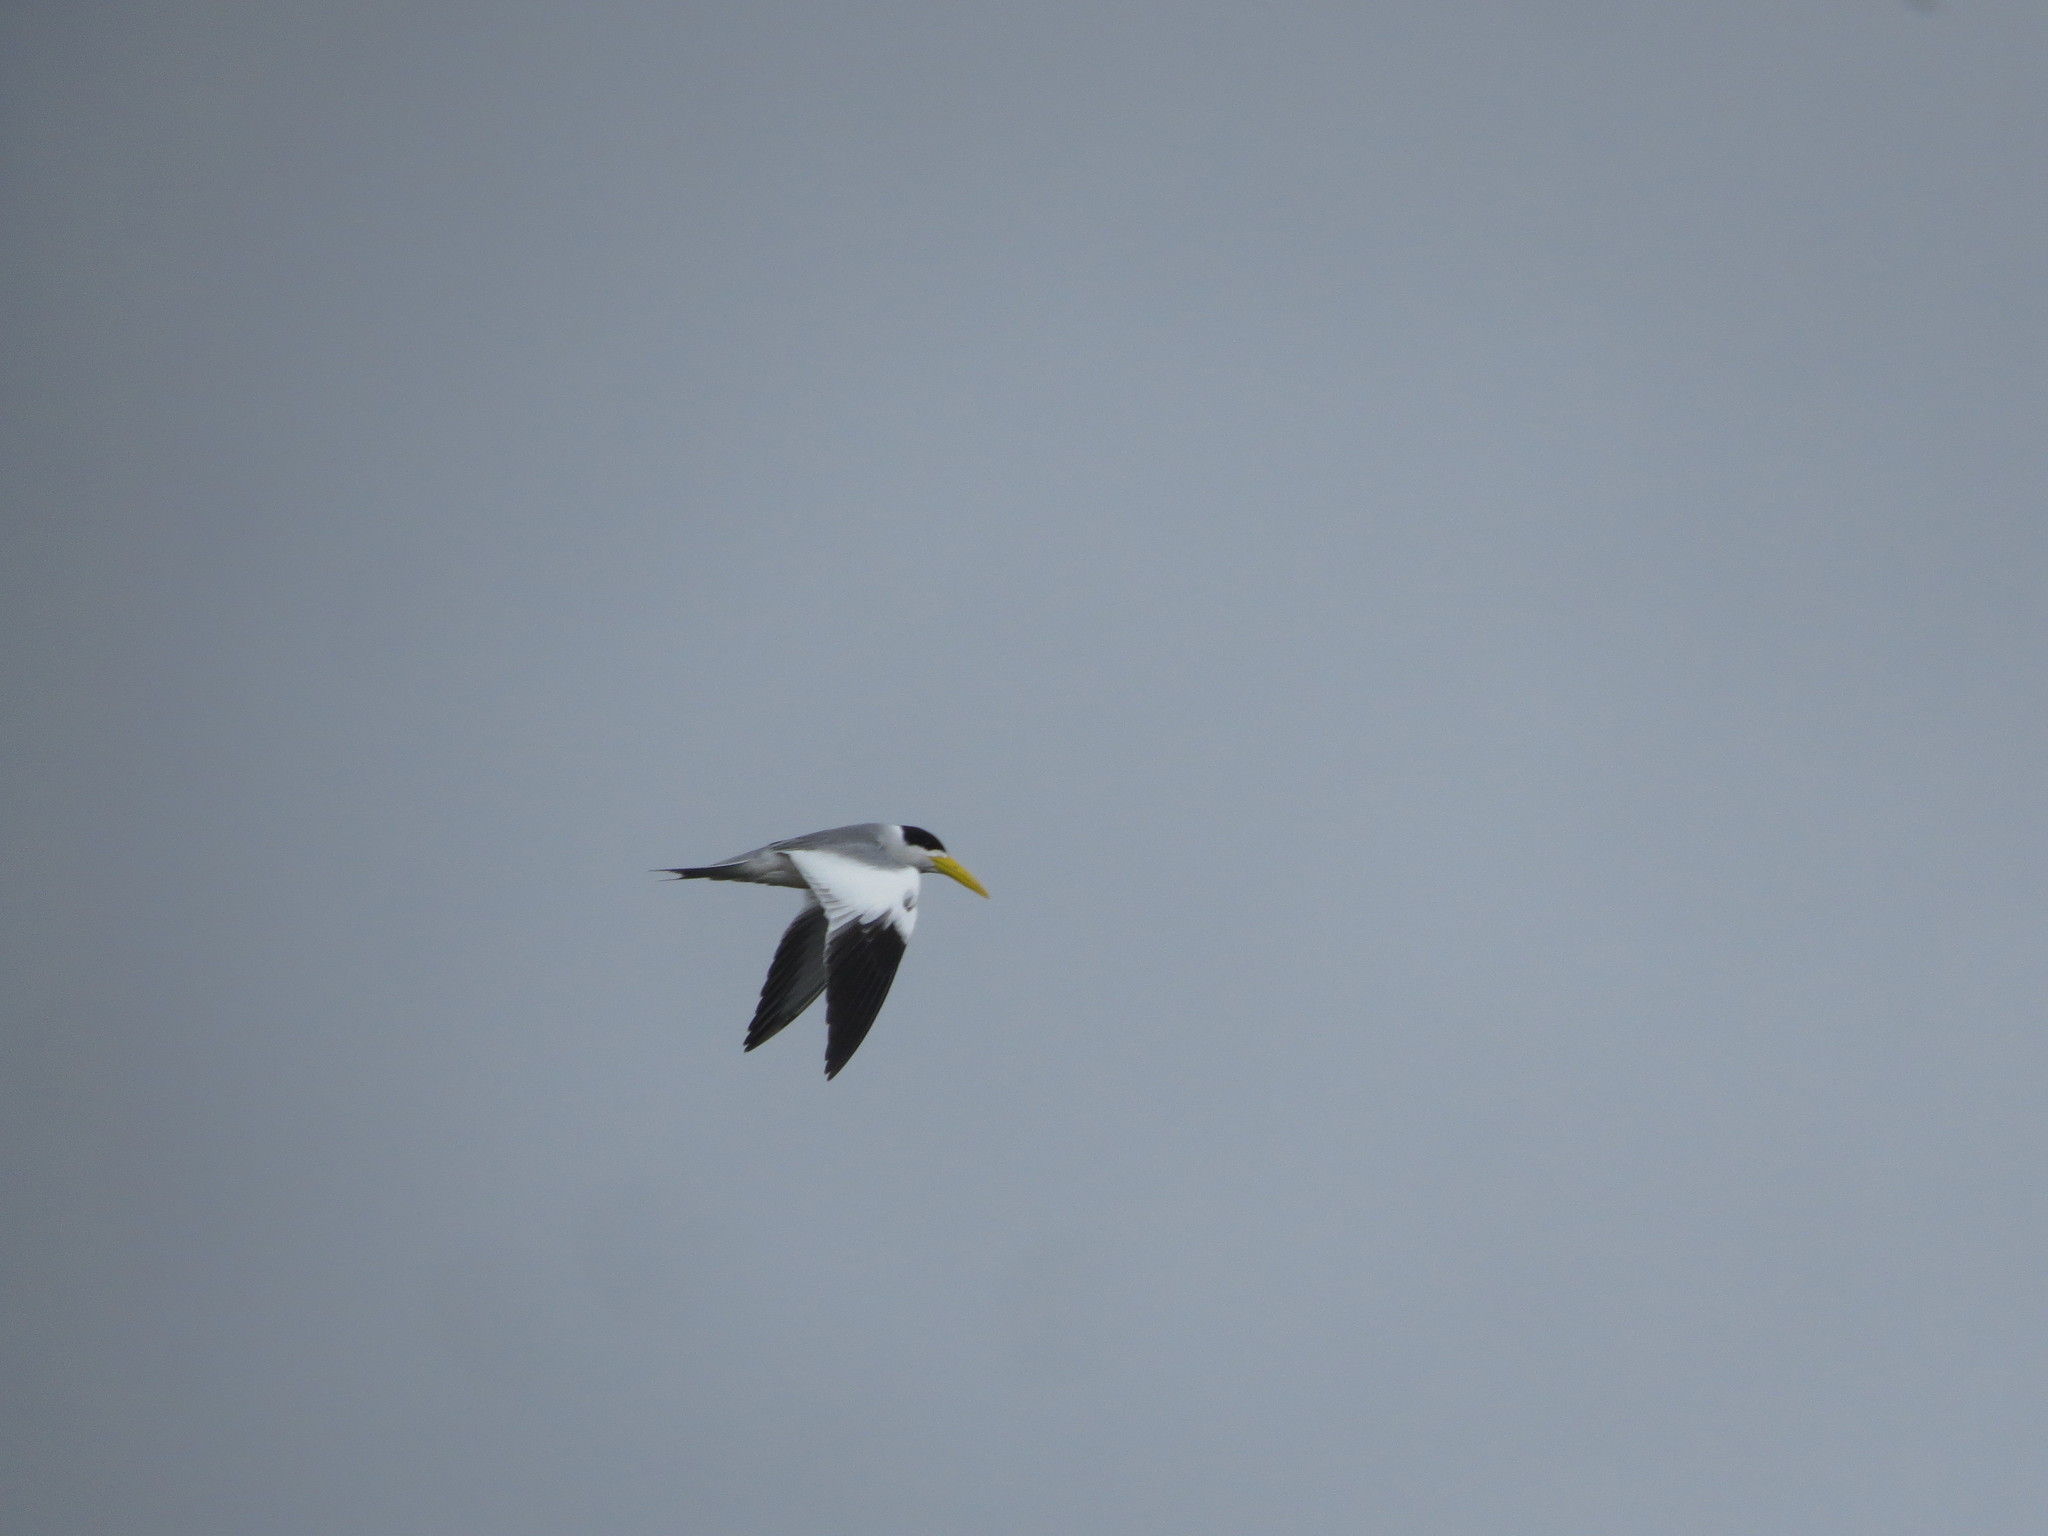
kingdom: Animalia
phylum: Chordata
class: Aves
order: Charadriiformes
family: Laridae
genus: Phaetusa
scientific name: Phaetusa simplex
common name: Large-billed tern
